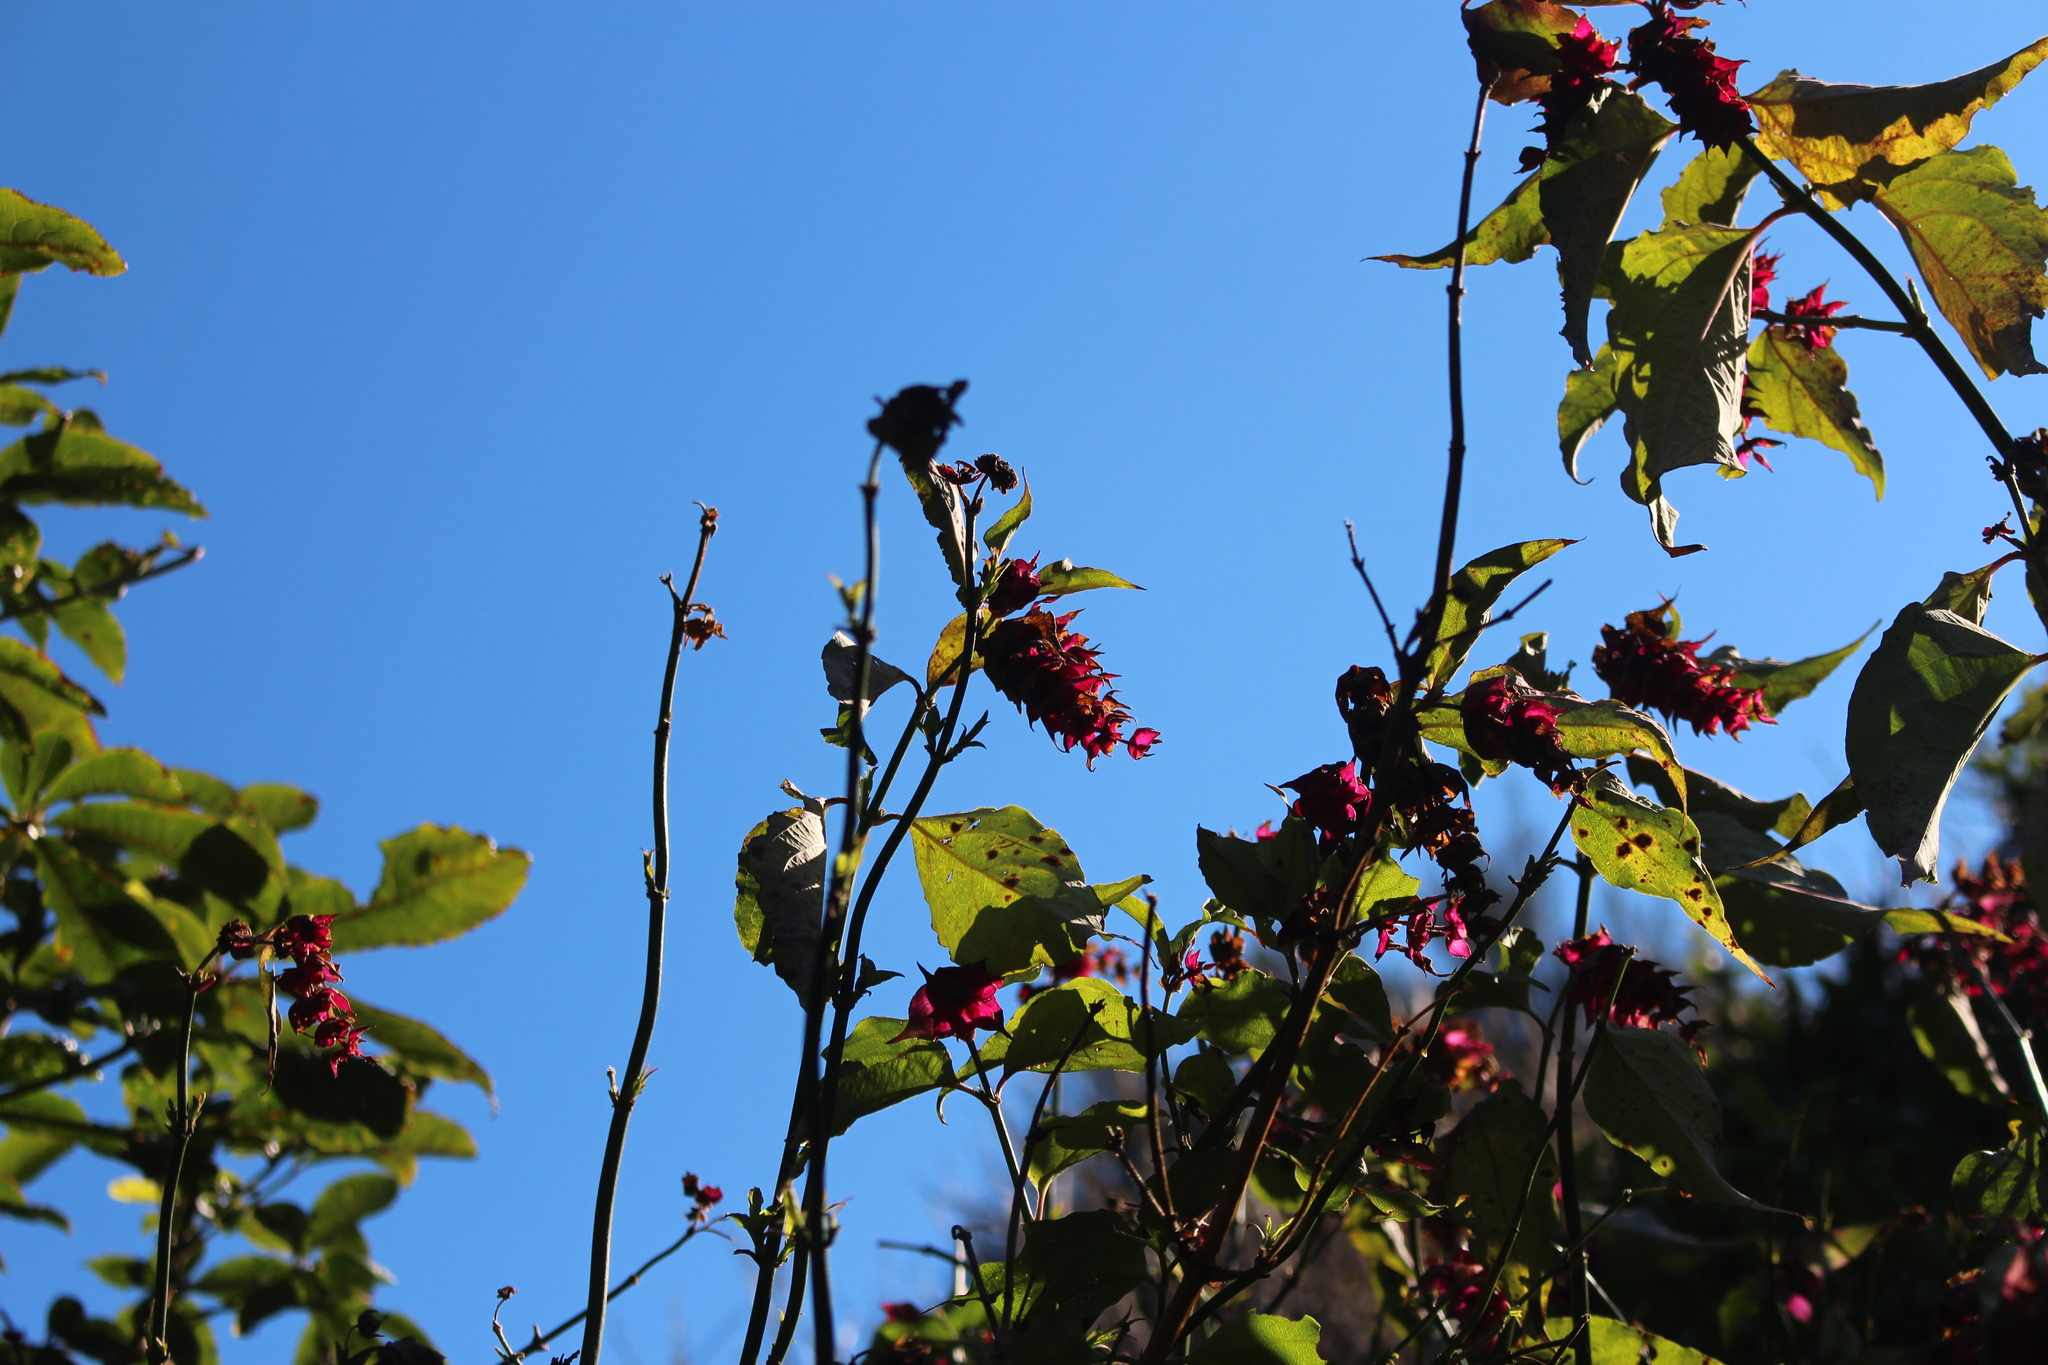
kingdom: Plantae
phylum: Tracheophyta
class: Magnoliopsida
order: Dipsacales
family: Caprifoliaceae
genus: Leycesteria
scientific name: Leycesteria formosa
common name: Himalayan honeysuckle
